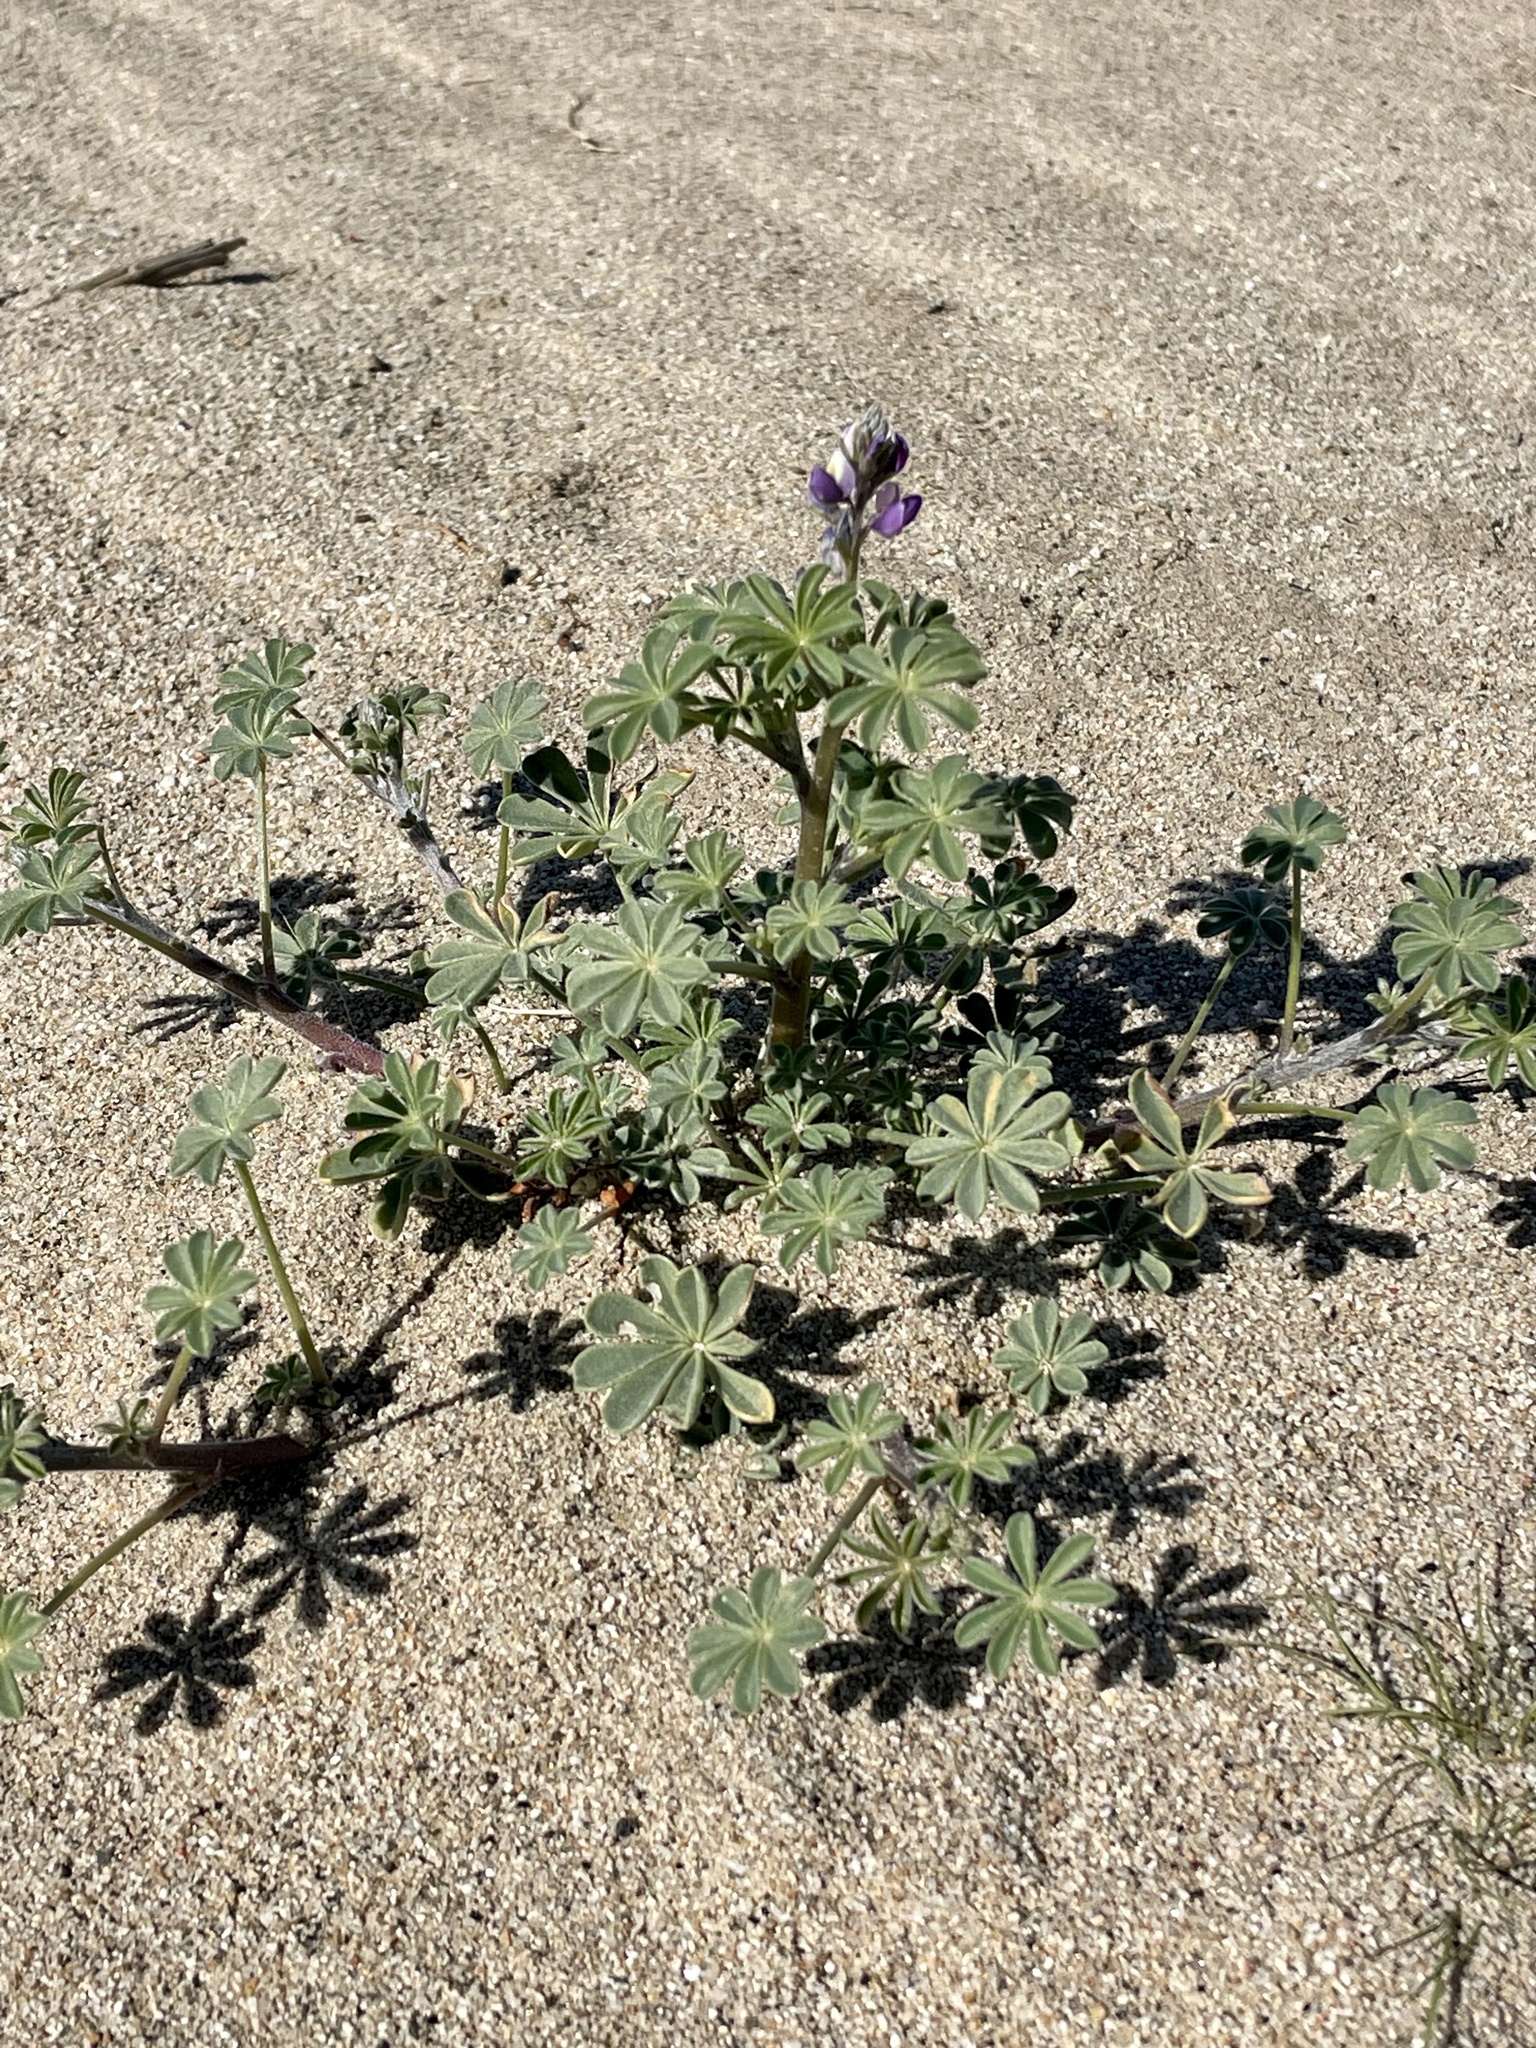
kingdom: Plantae
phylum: Tracheophyta
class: Magnoliopsida
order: Fabales
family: Fabaceae
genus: Lupinus
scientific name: Lupinus arizonicus
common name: Arizona lupine
